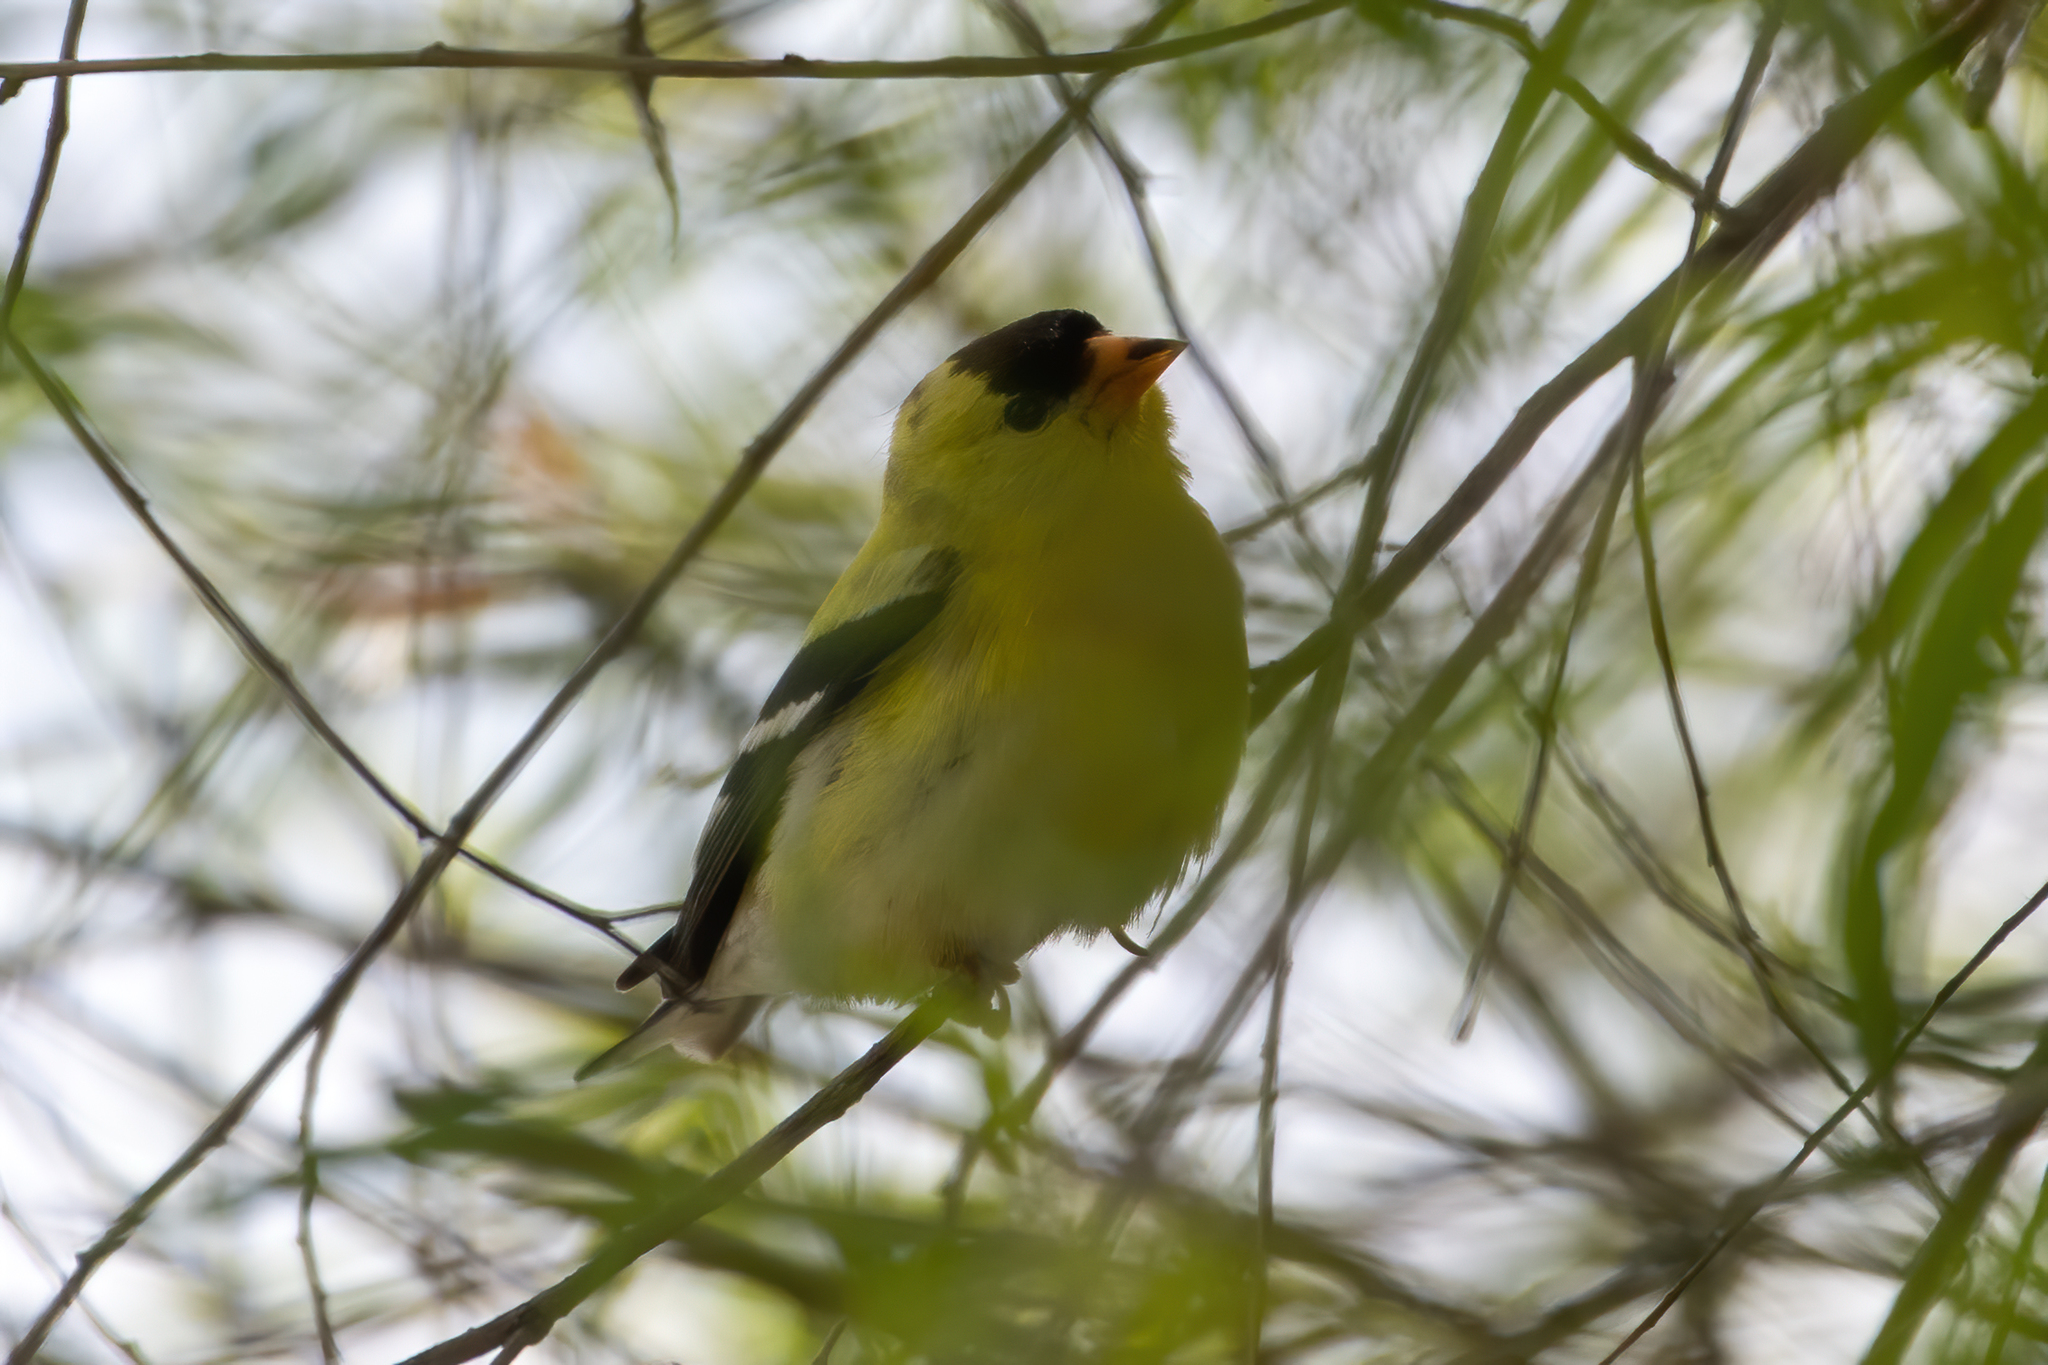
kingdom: Animalia
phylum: Chordata
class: Aves
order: Passeriformes
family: Fringillidae
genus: Spinus
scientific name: Spinus tristis
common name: American goldfinch
